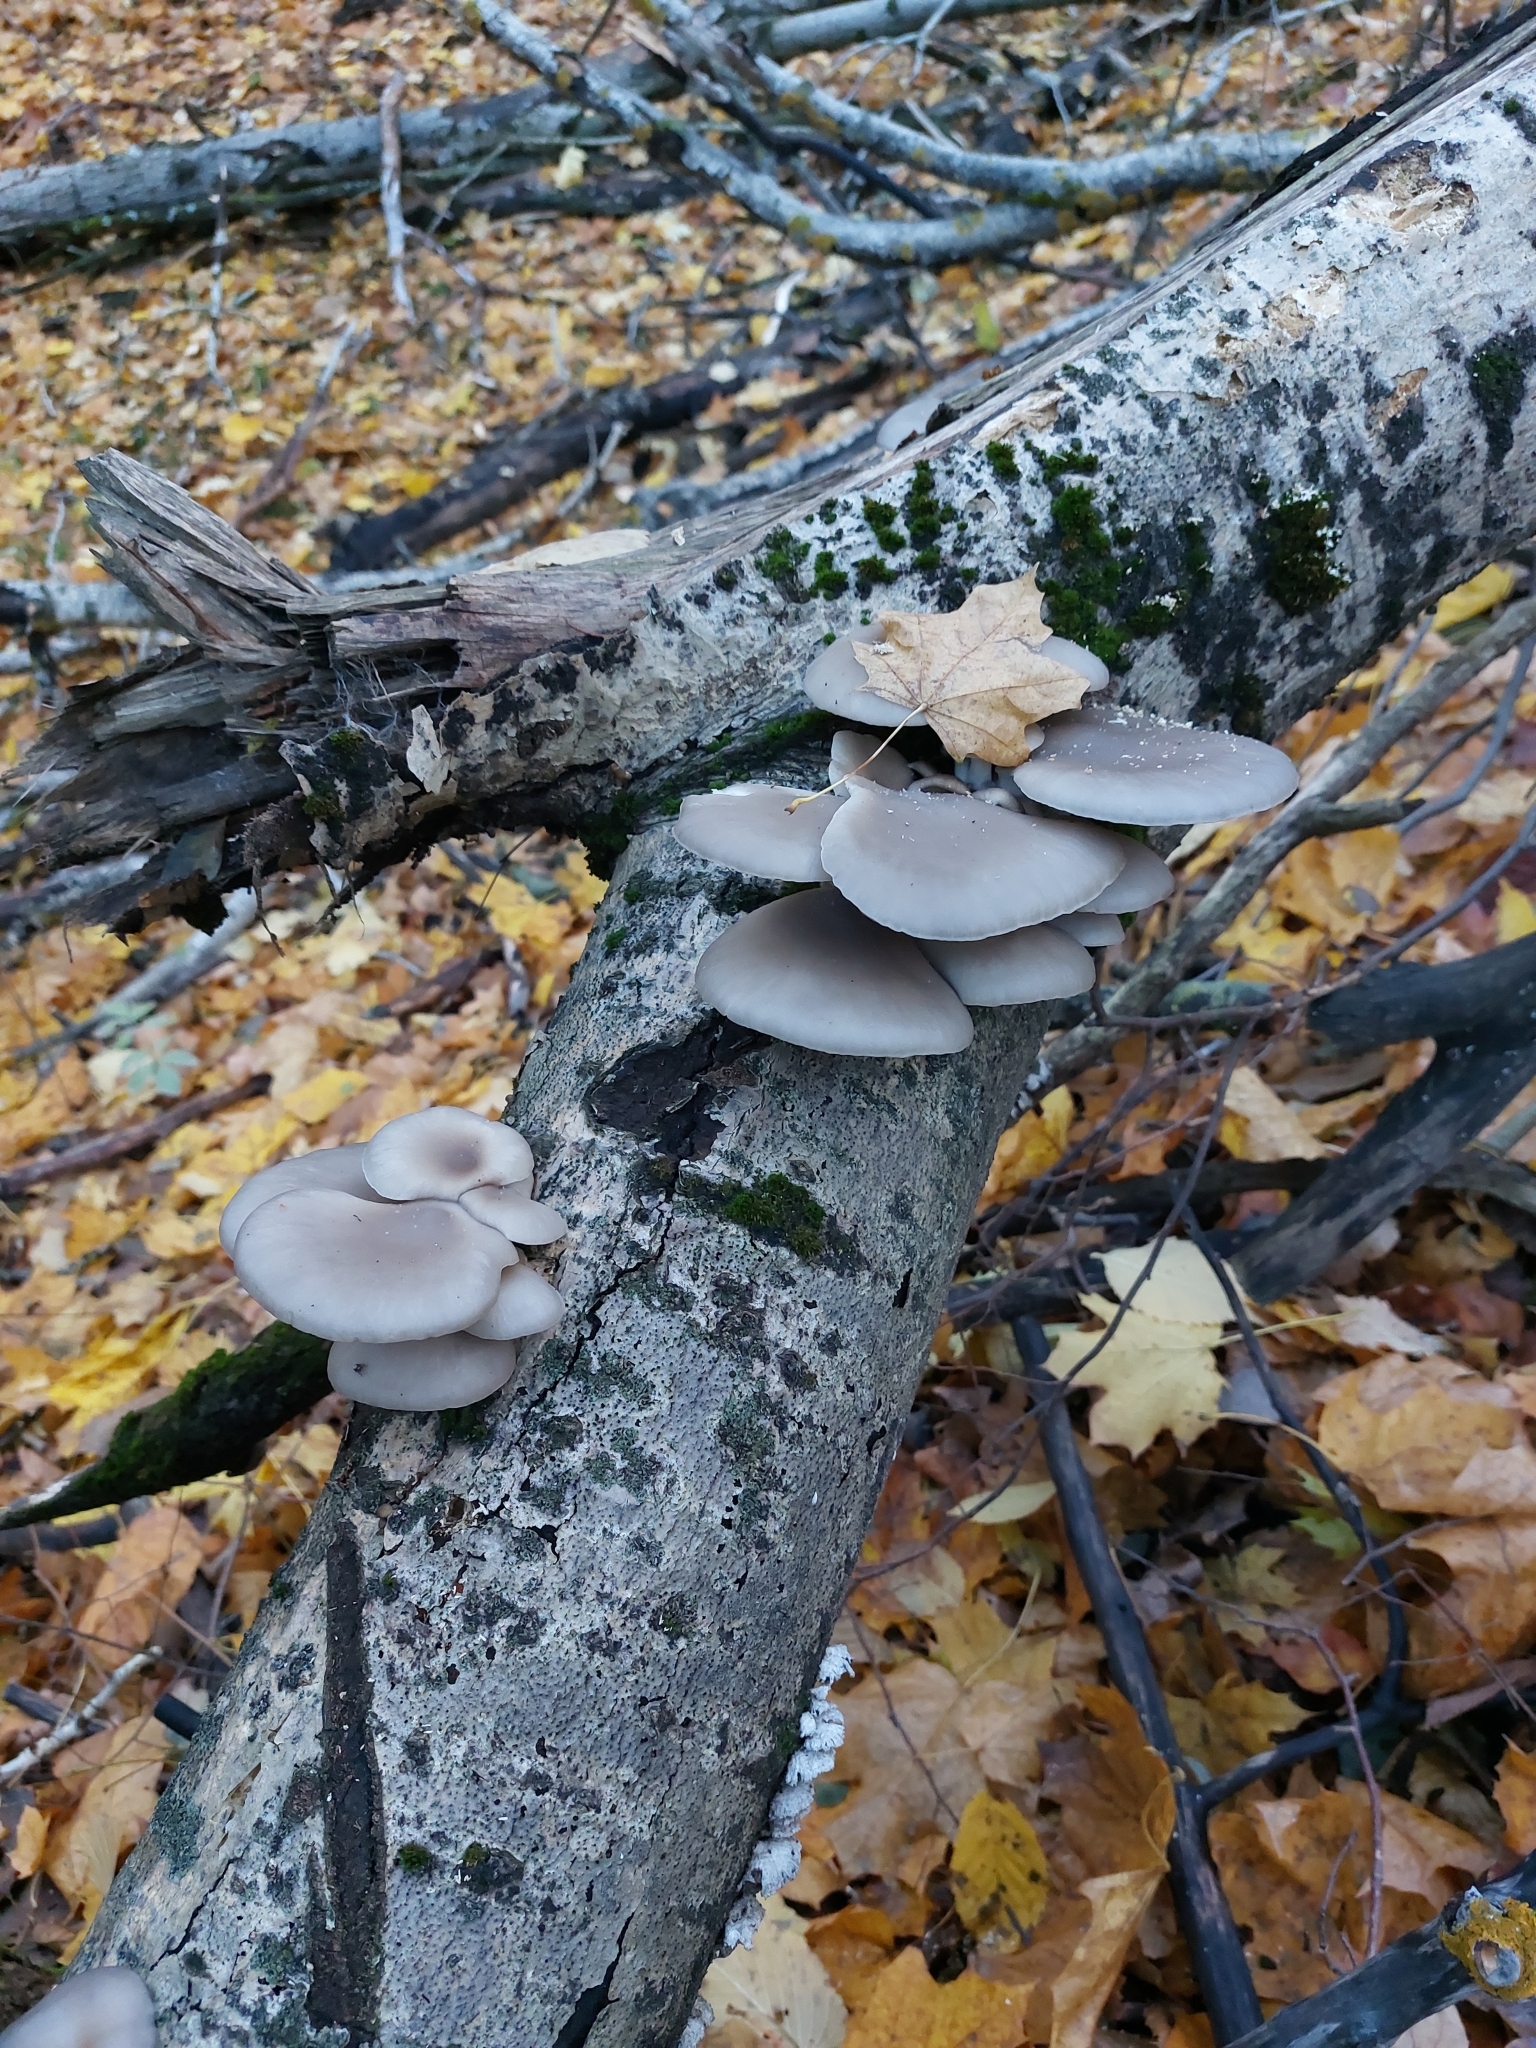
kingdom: Fungi
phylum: Basidiomycota
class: Agaricomycetes
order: Agaricales
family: Pleurotaceae
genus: Pleurotus
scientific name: Pleurotus ostreatus
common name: Oyster mushroom
